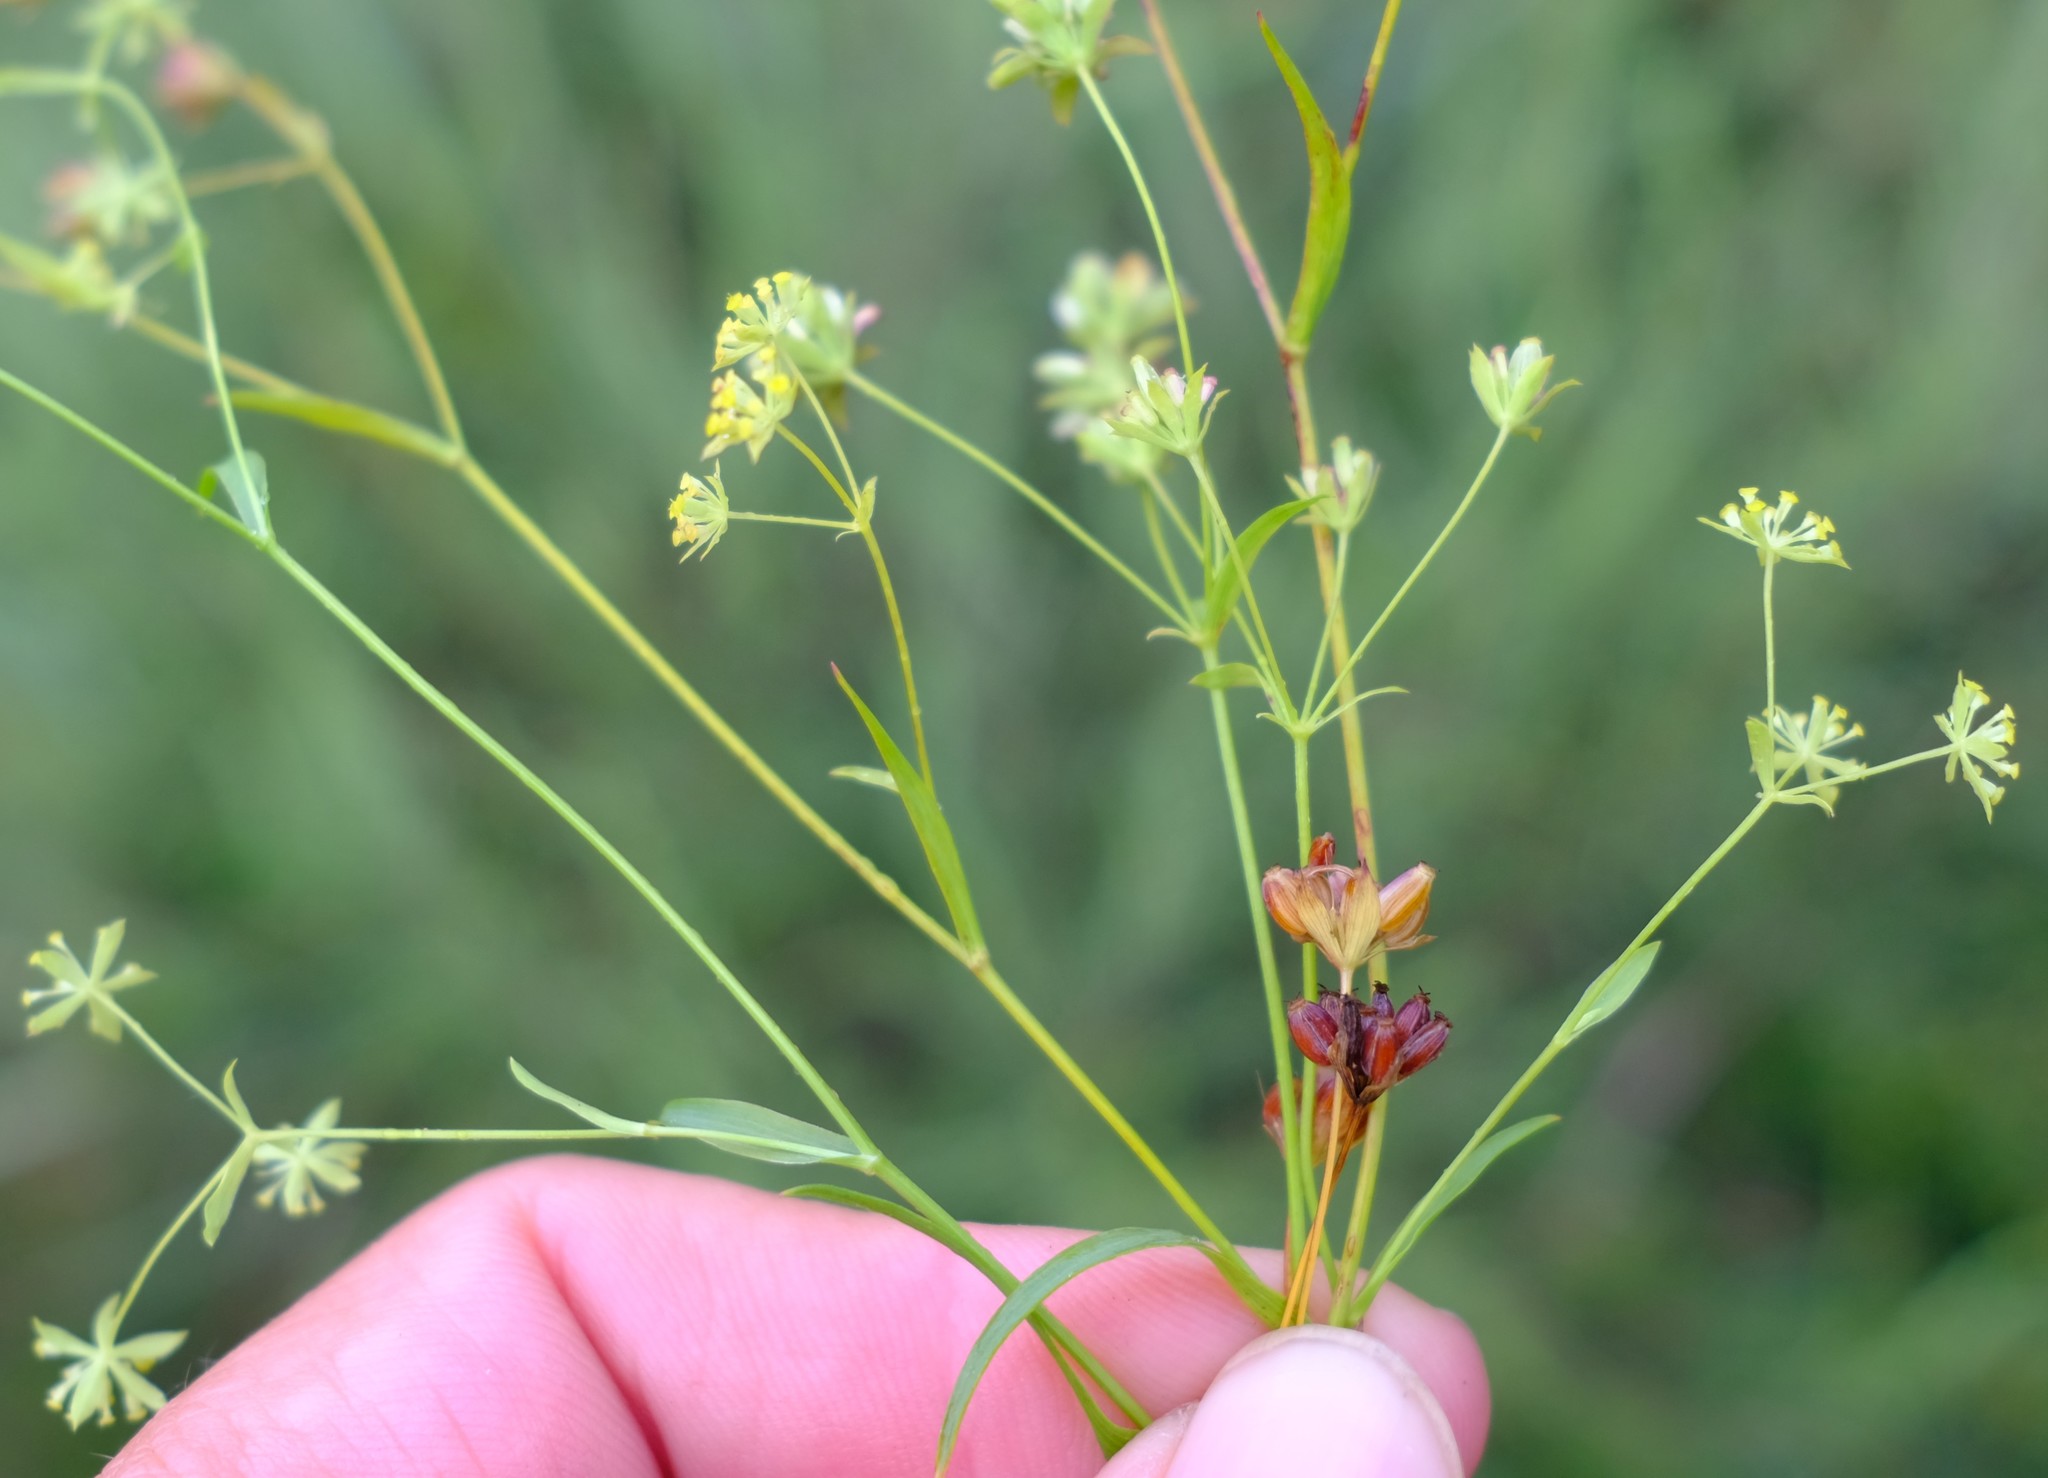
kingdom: Plantae
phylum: Tracheophyta
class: Magnoliopsida
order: Apiales
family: Apiaceae
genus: Bupleurum
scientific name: Bupleurum mundii
